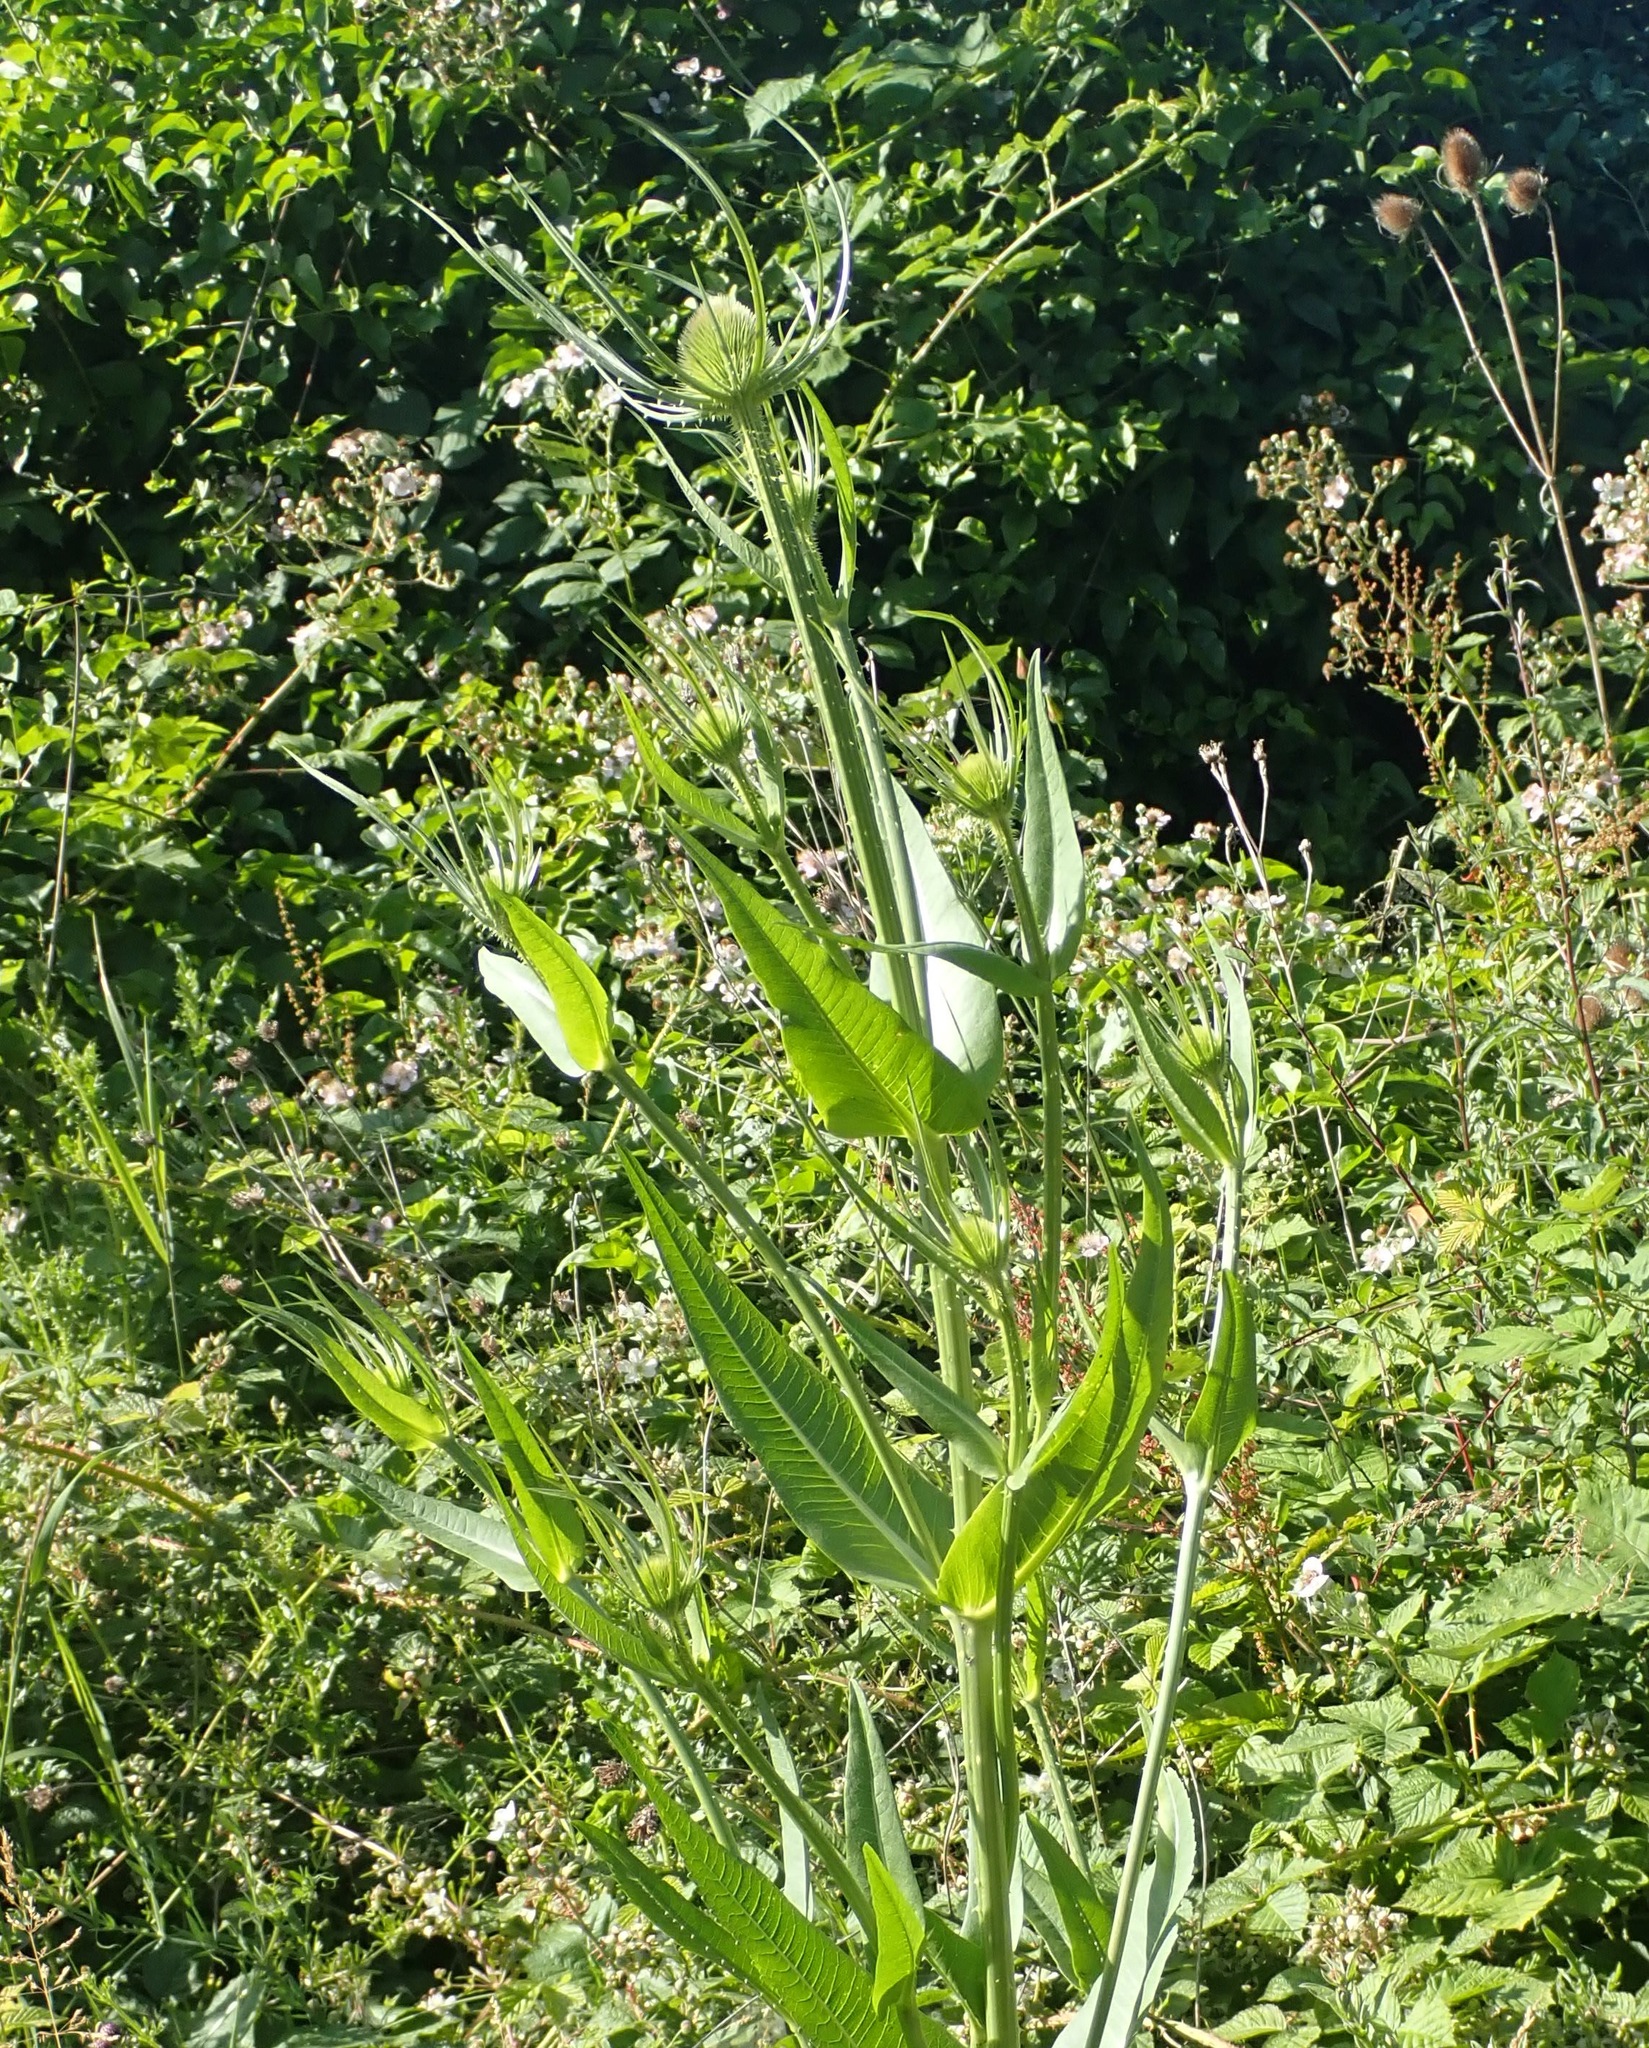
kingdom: Plantae
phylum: Tracheophyta
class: Magnoliopsida
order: Dipsacales
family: Caprifoliaceae
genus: Dipsacus
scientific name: Dipsacus fullonum
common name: Teasel
